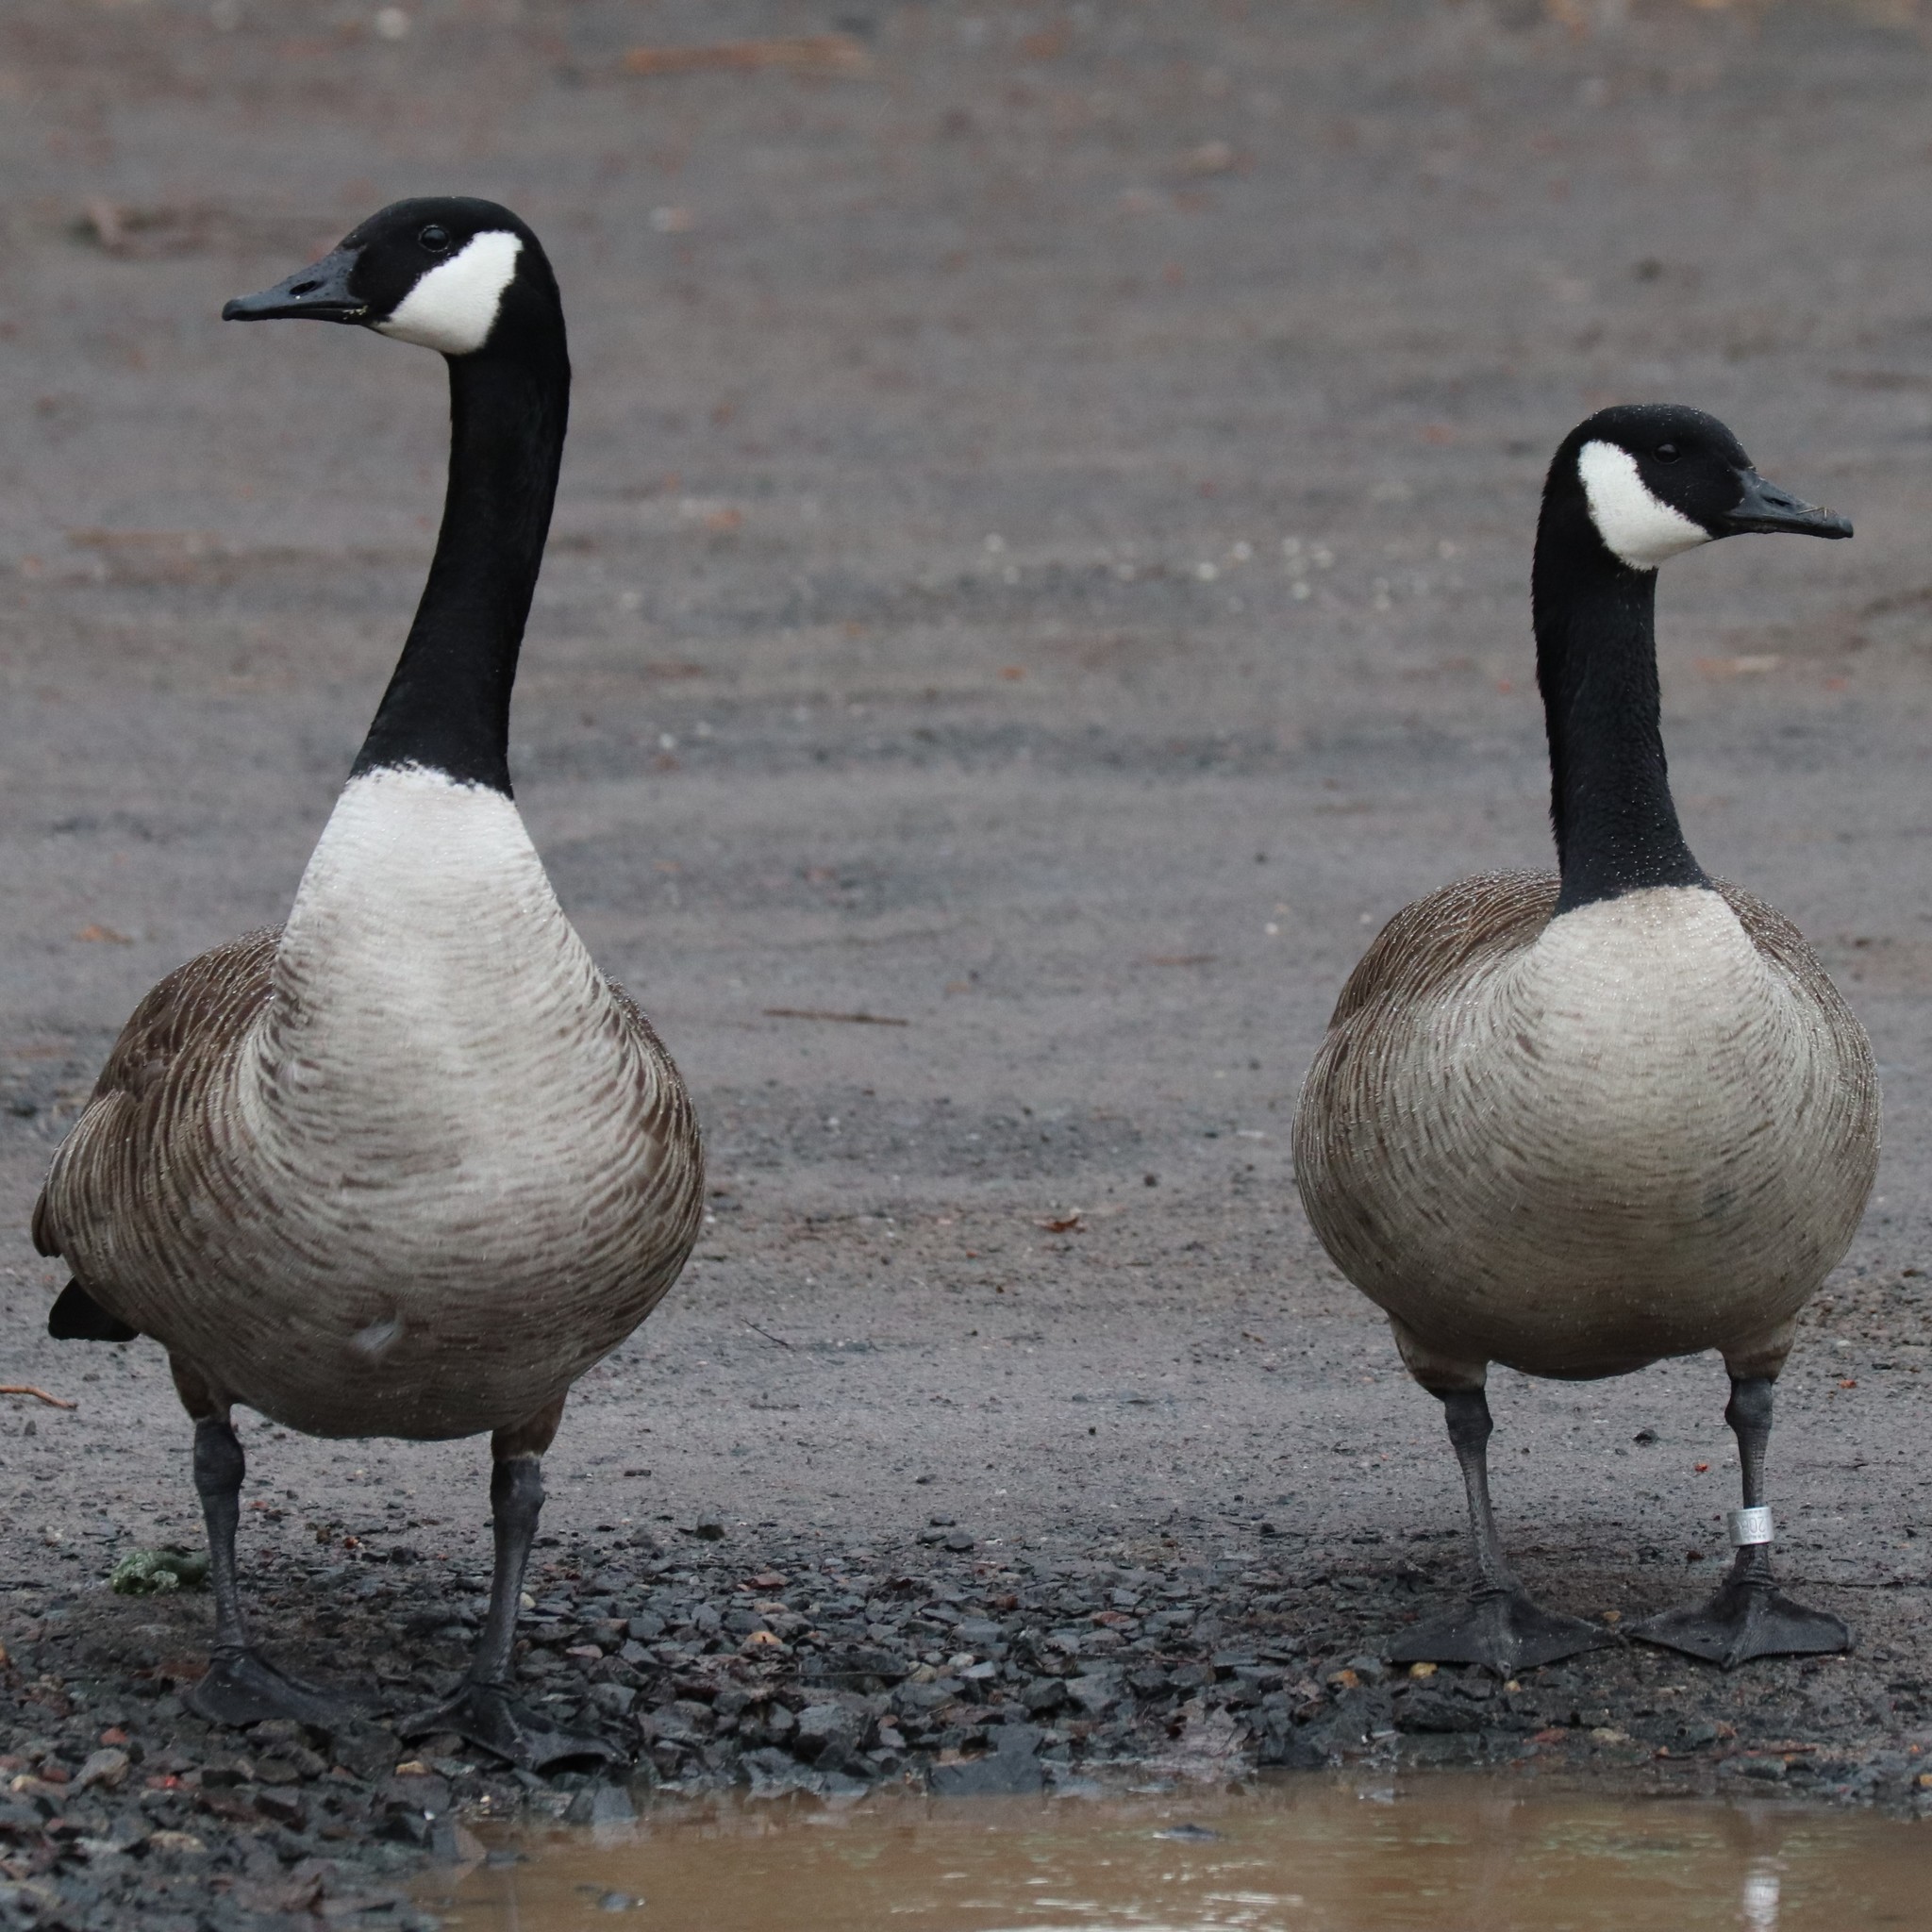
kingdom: Animalia
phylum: Chordata
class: Aves
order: Anseriformes
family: Anatidae
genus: Branta
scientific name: Branta canadensis
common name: Canada goose
